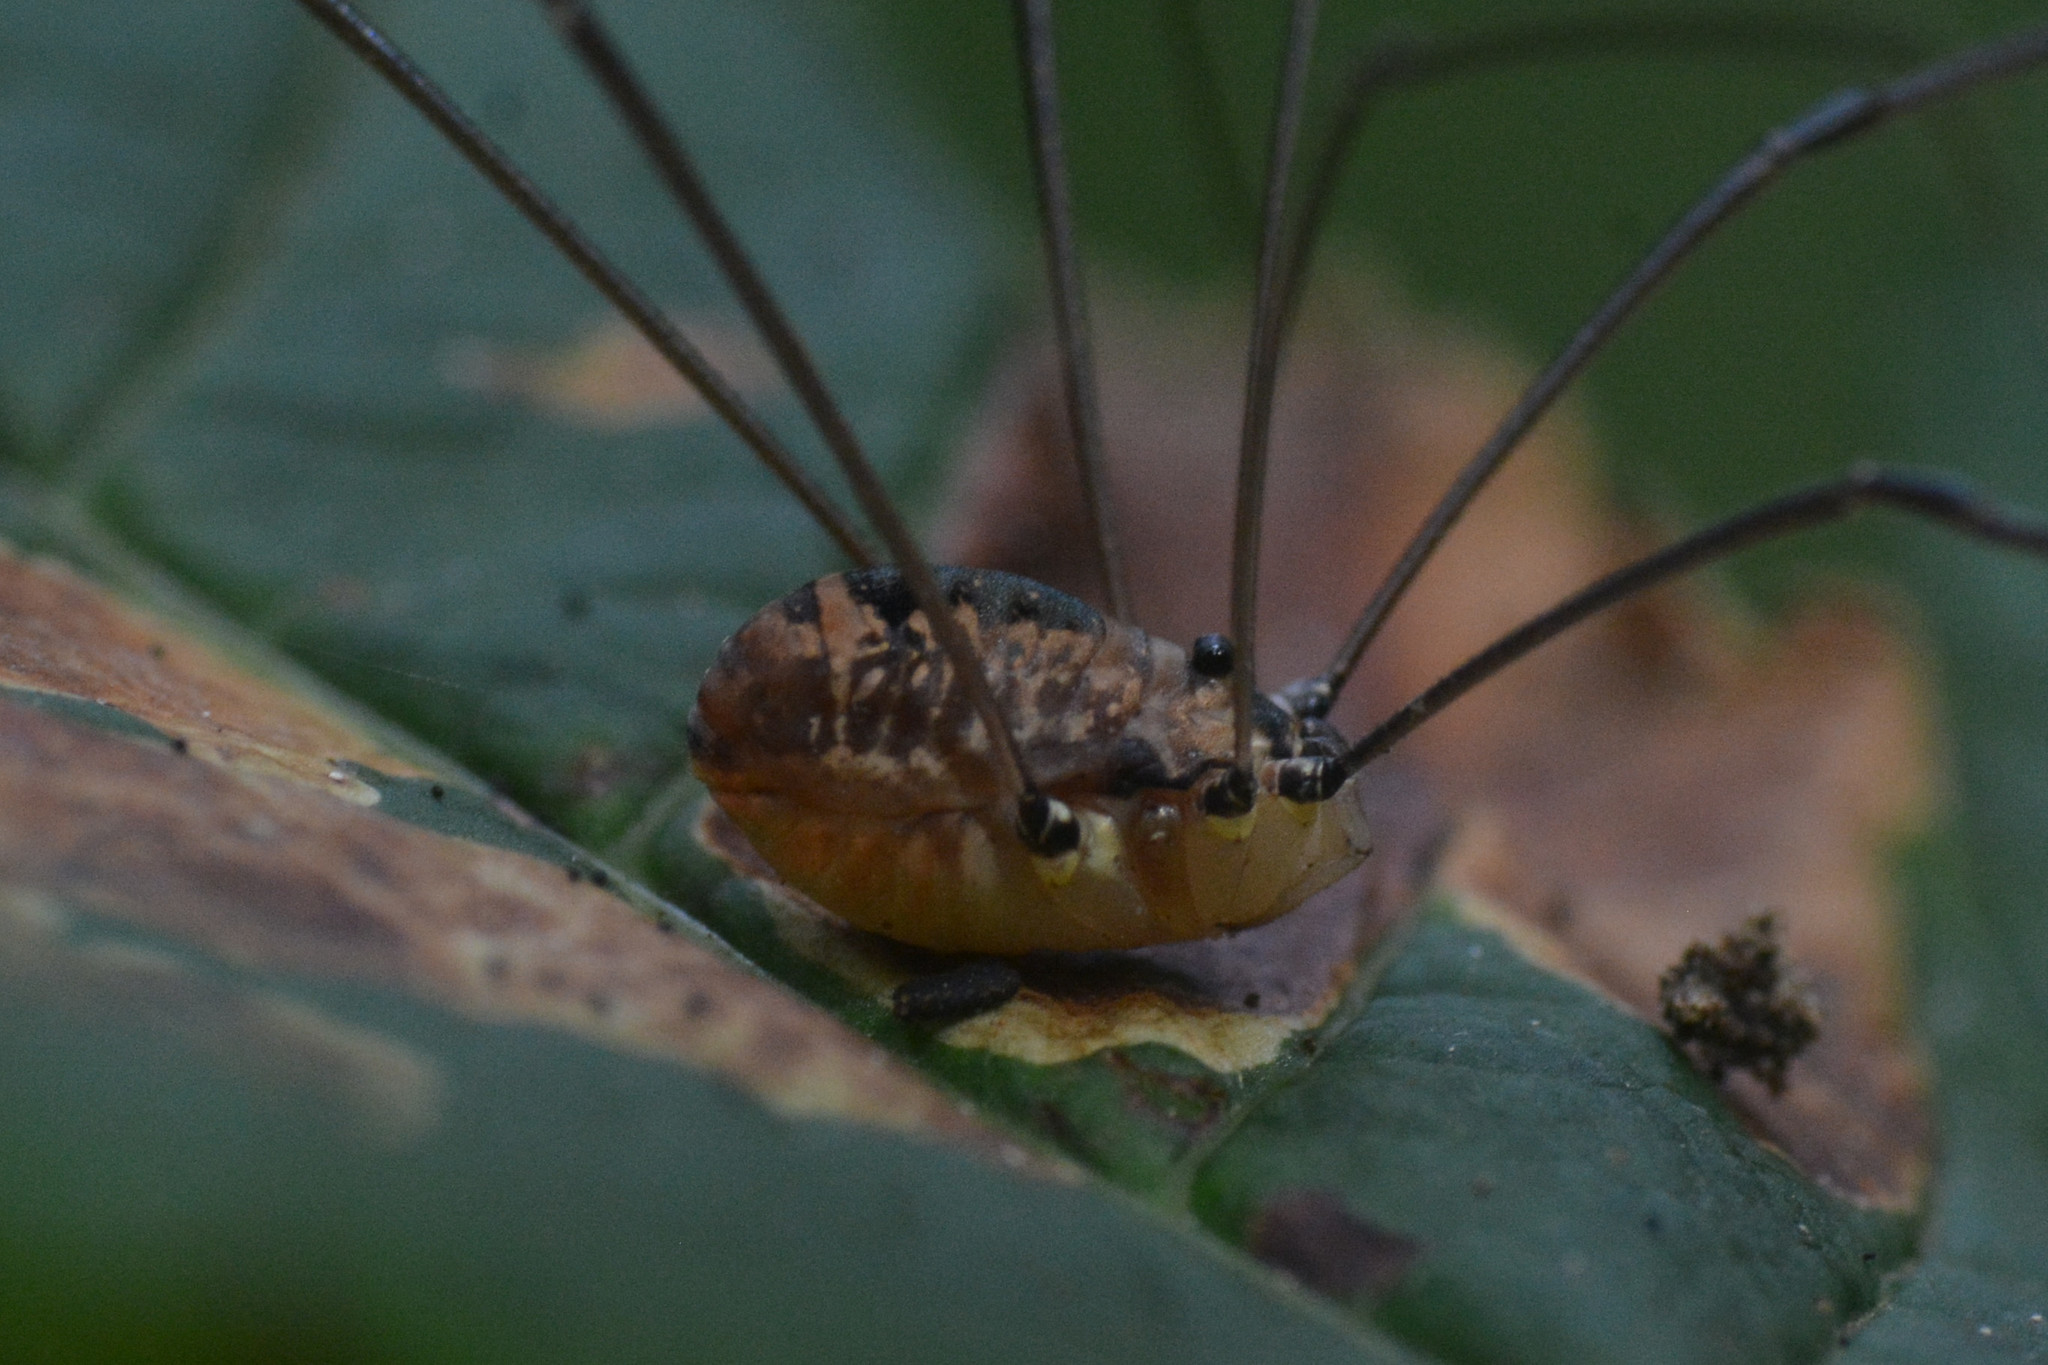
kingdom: Animalia
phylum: Arthropoda
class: Arachnida
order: Opiliones
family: Sclerosomatidae
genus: Leiobunum
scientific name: Leiobunum rotundum
